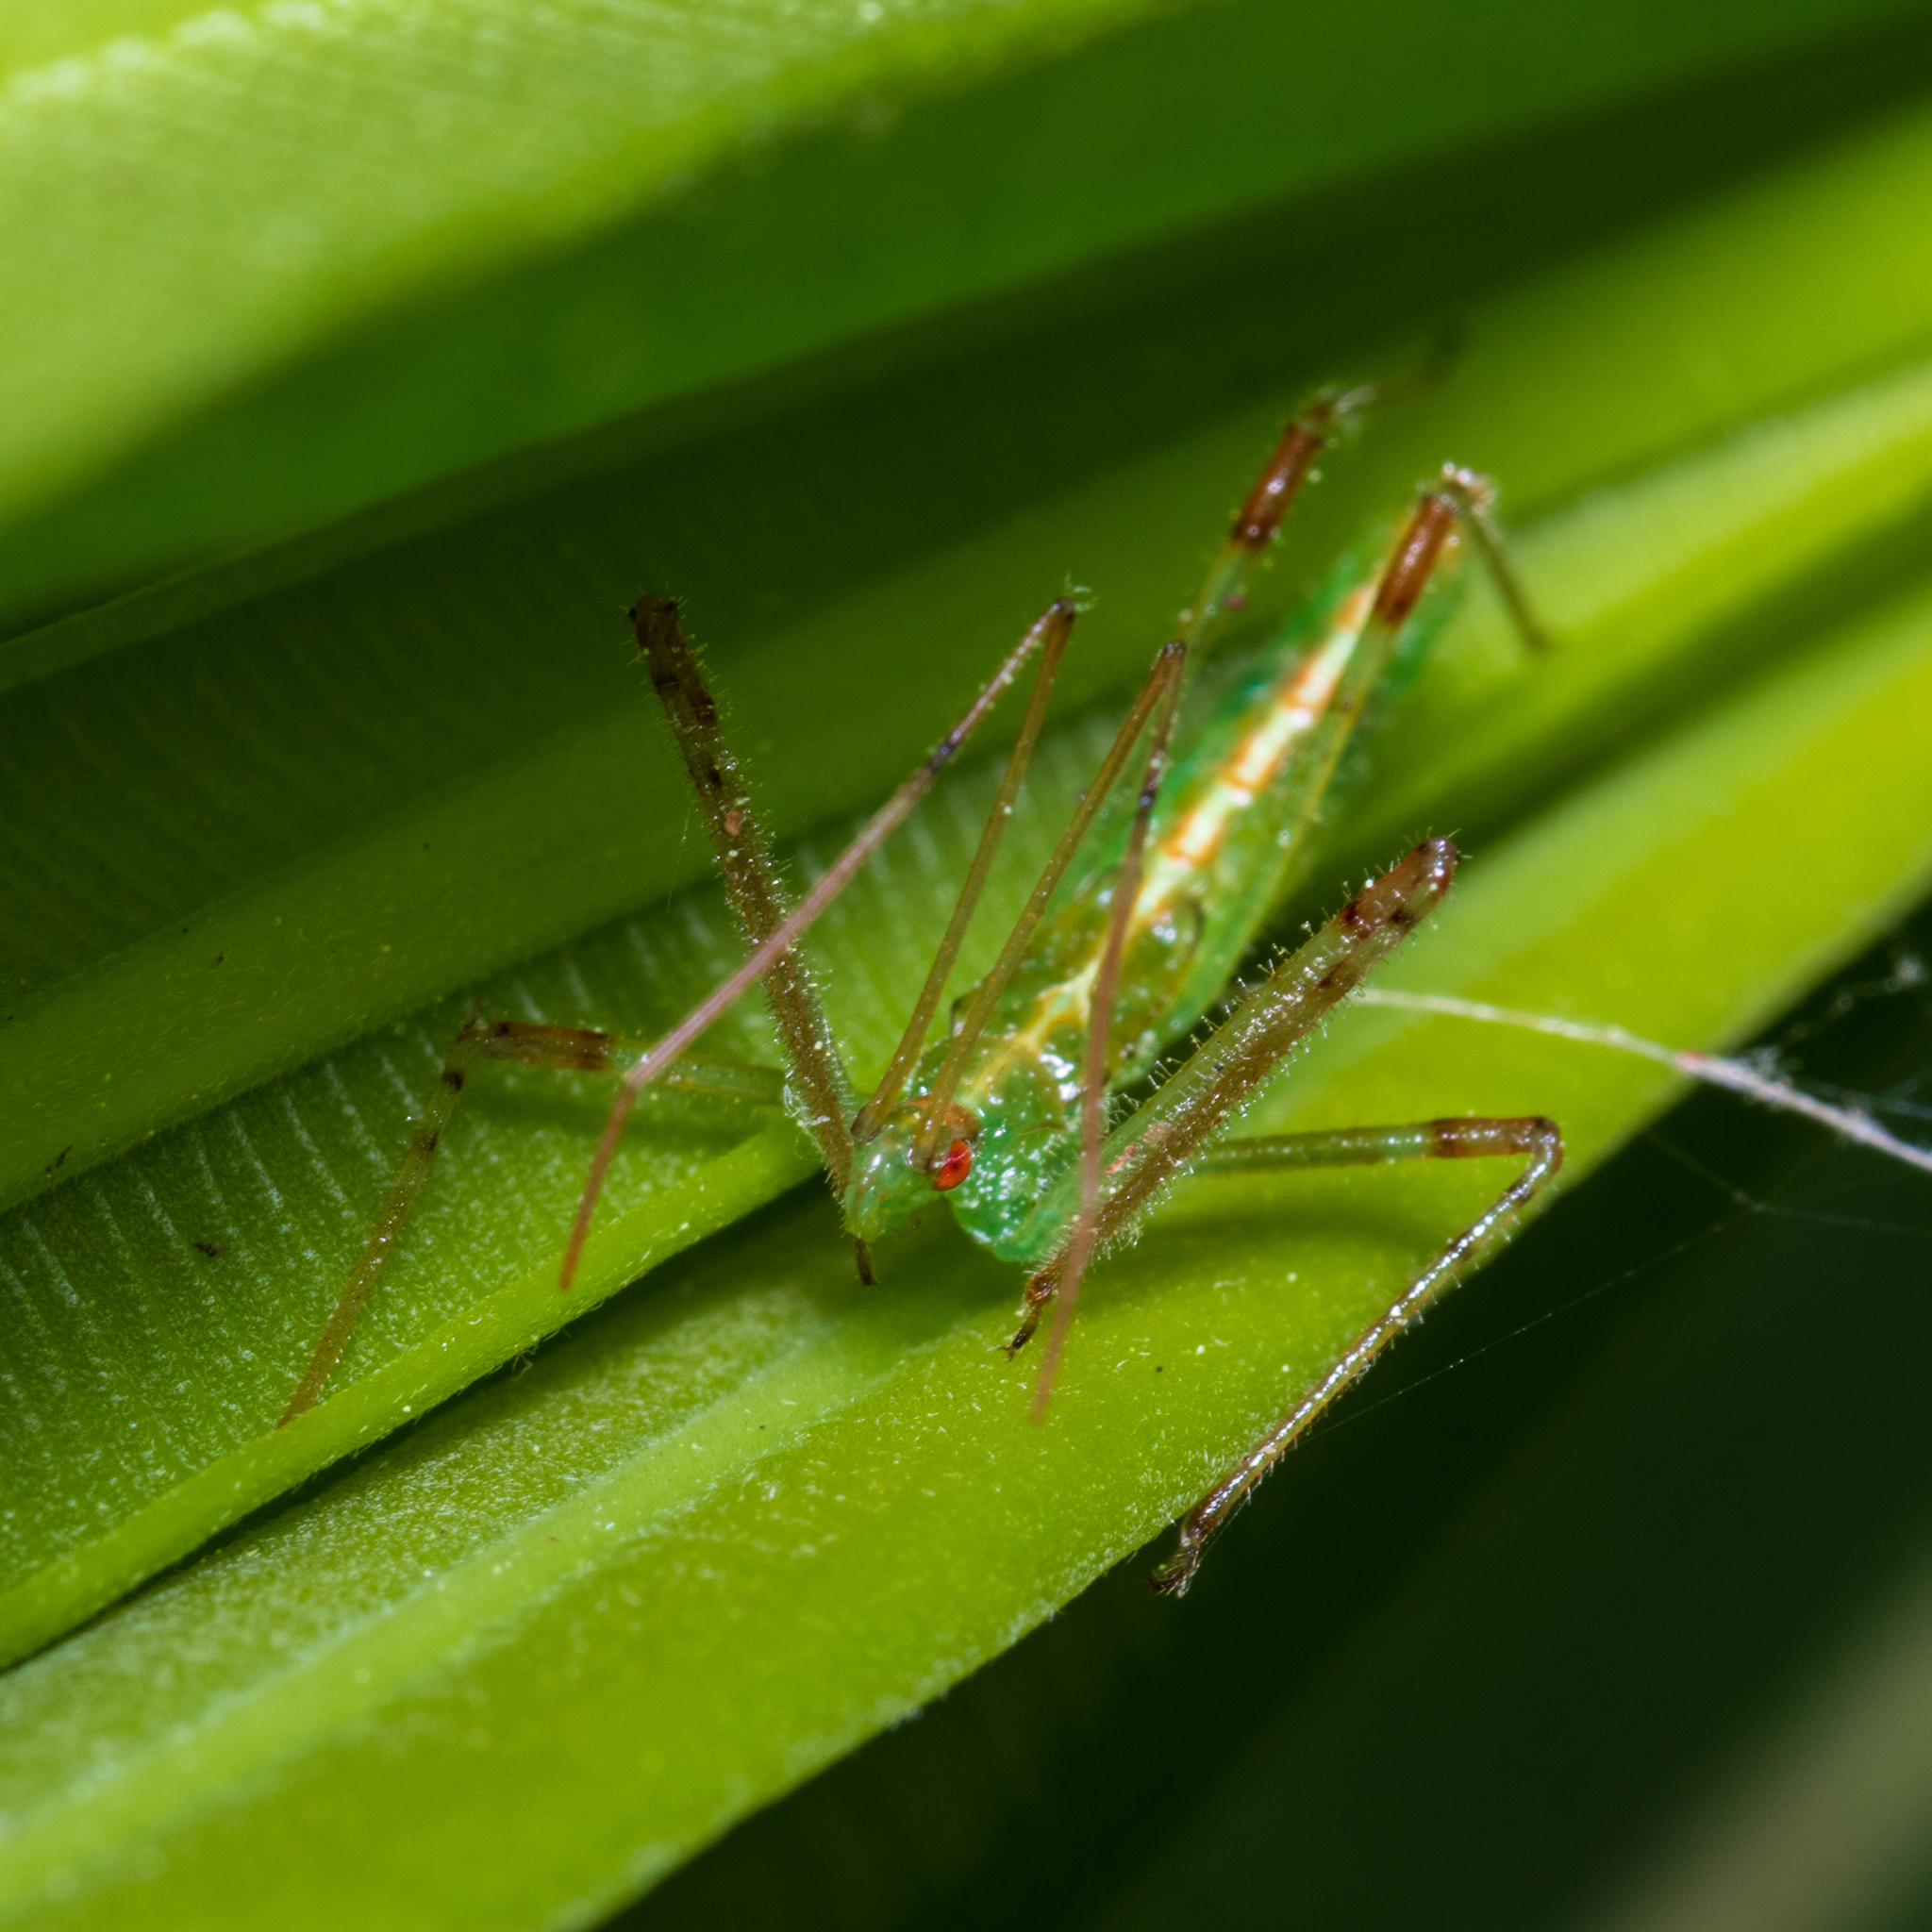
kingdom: Animalia
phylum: Arthropoda
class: Insecta
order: Hemiptera
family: Reduviidae
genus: Zelus
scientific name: Zelus luridus
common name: Pale green assassin bug
